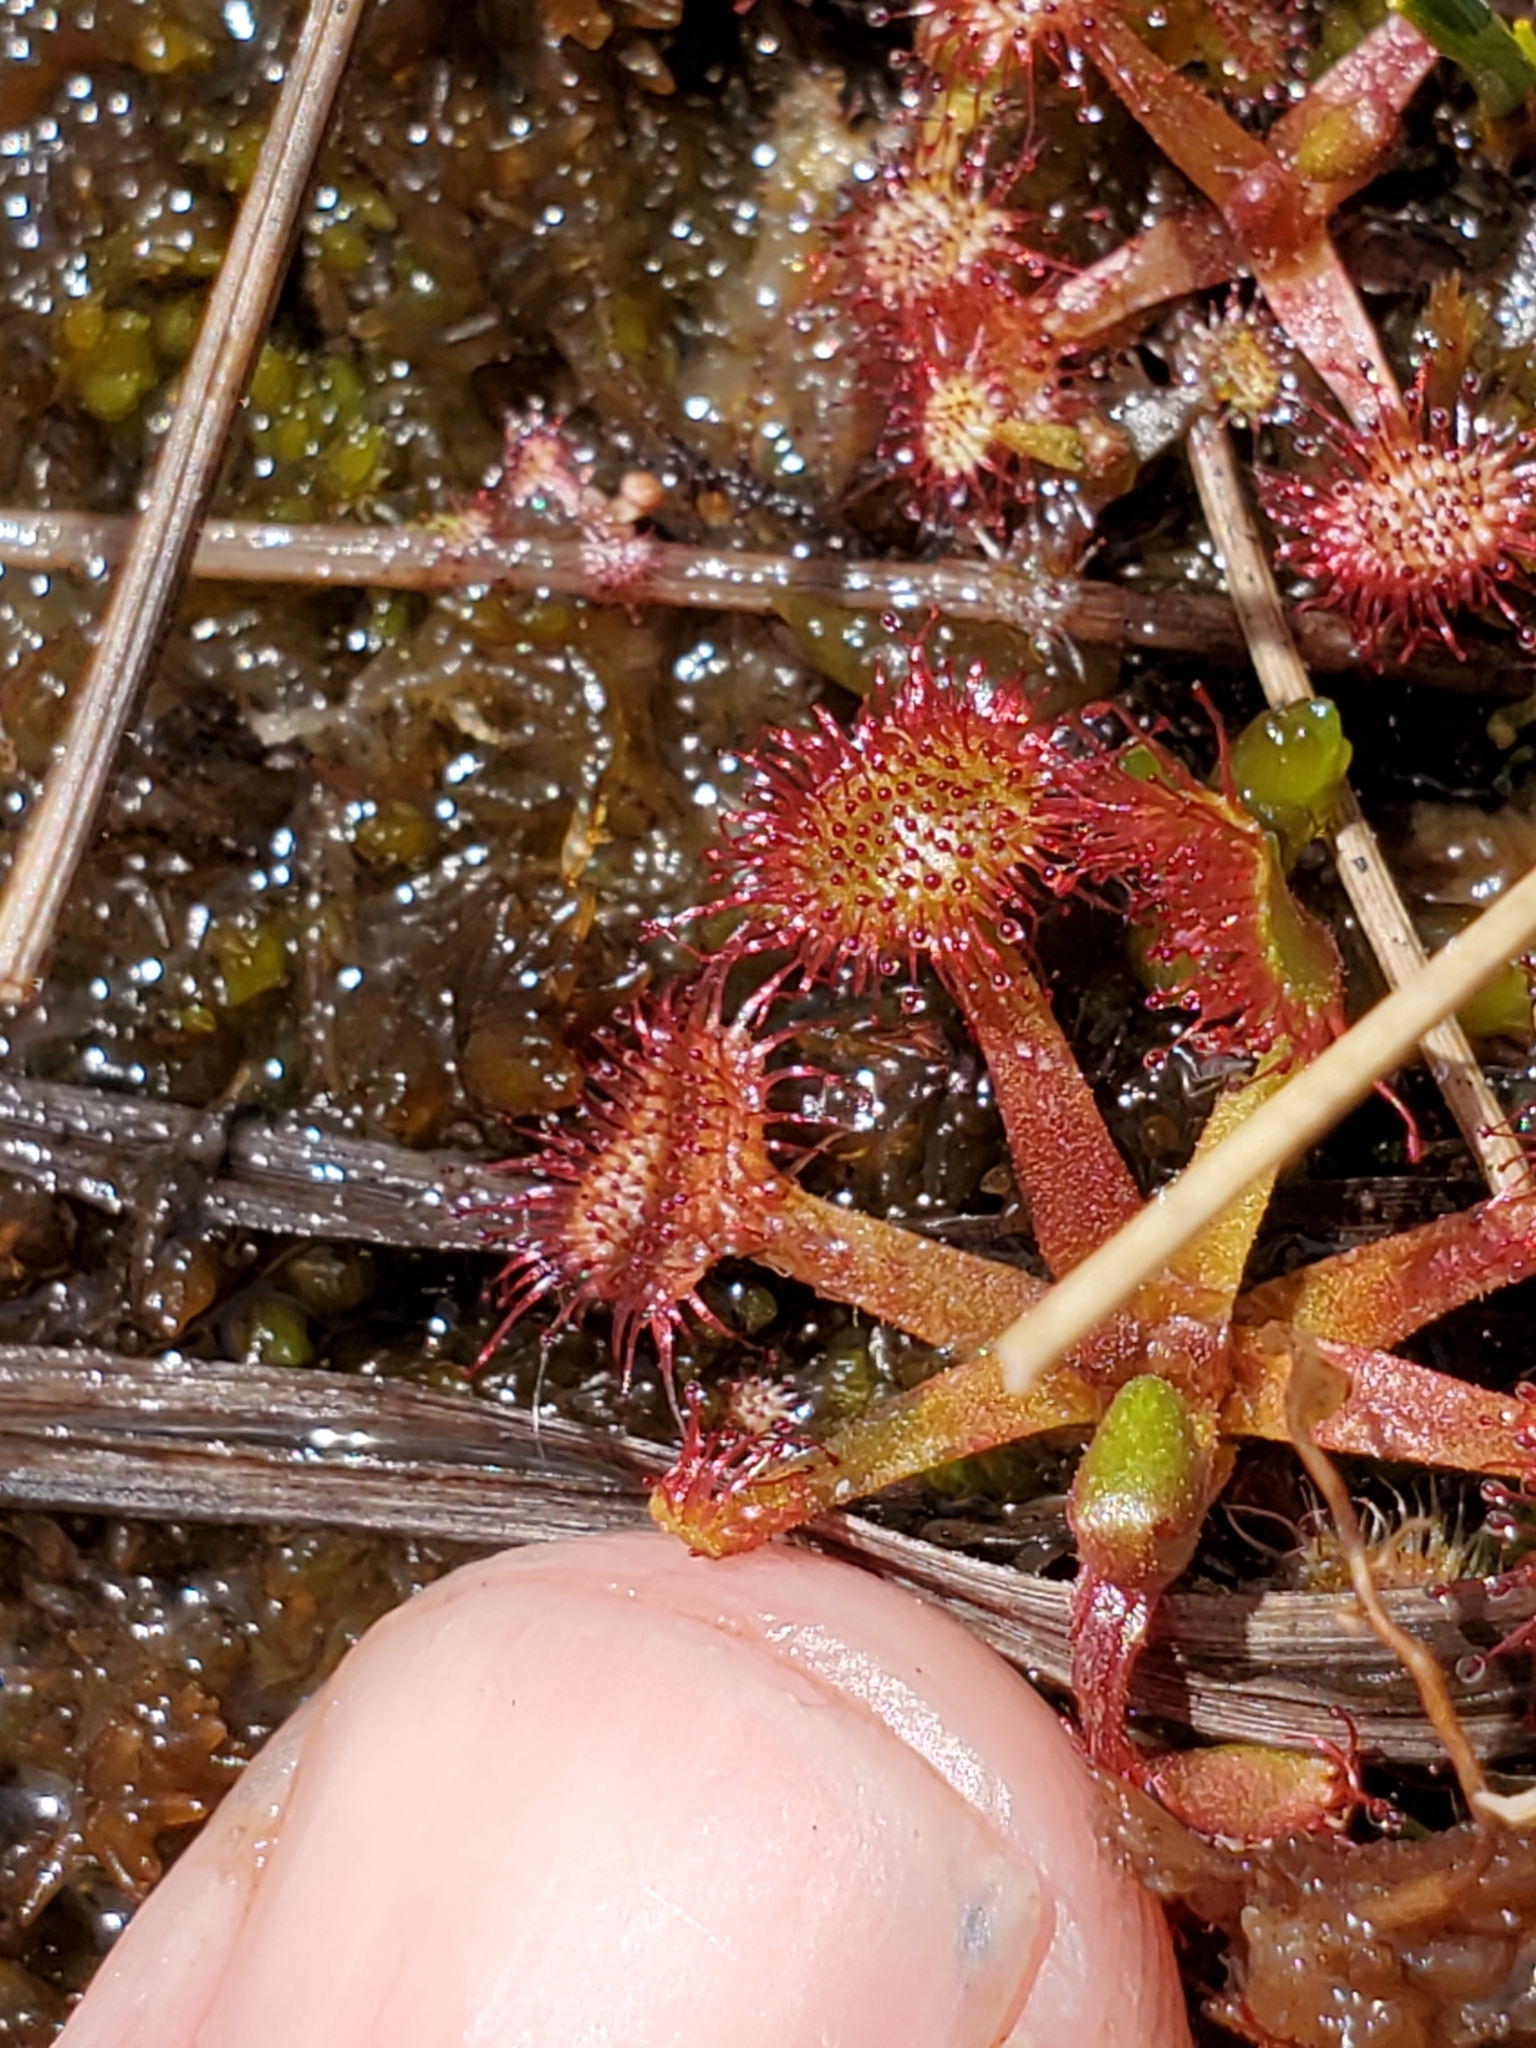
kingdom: Plantae
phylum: Tracheophyta
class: Magnoliopsida
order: Caryophyllales
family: Droseraceae
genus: Drosera
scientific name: Drosera rotundifolia
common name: Round-leaved sundew
